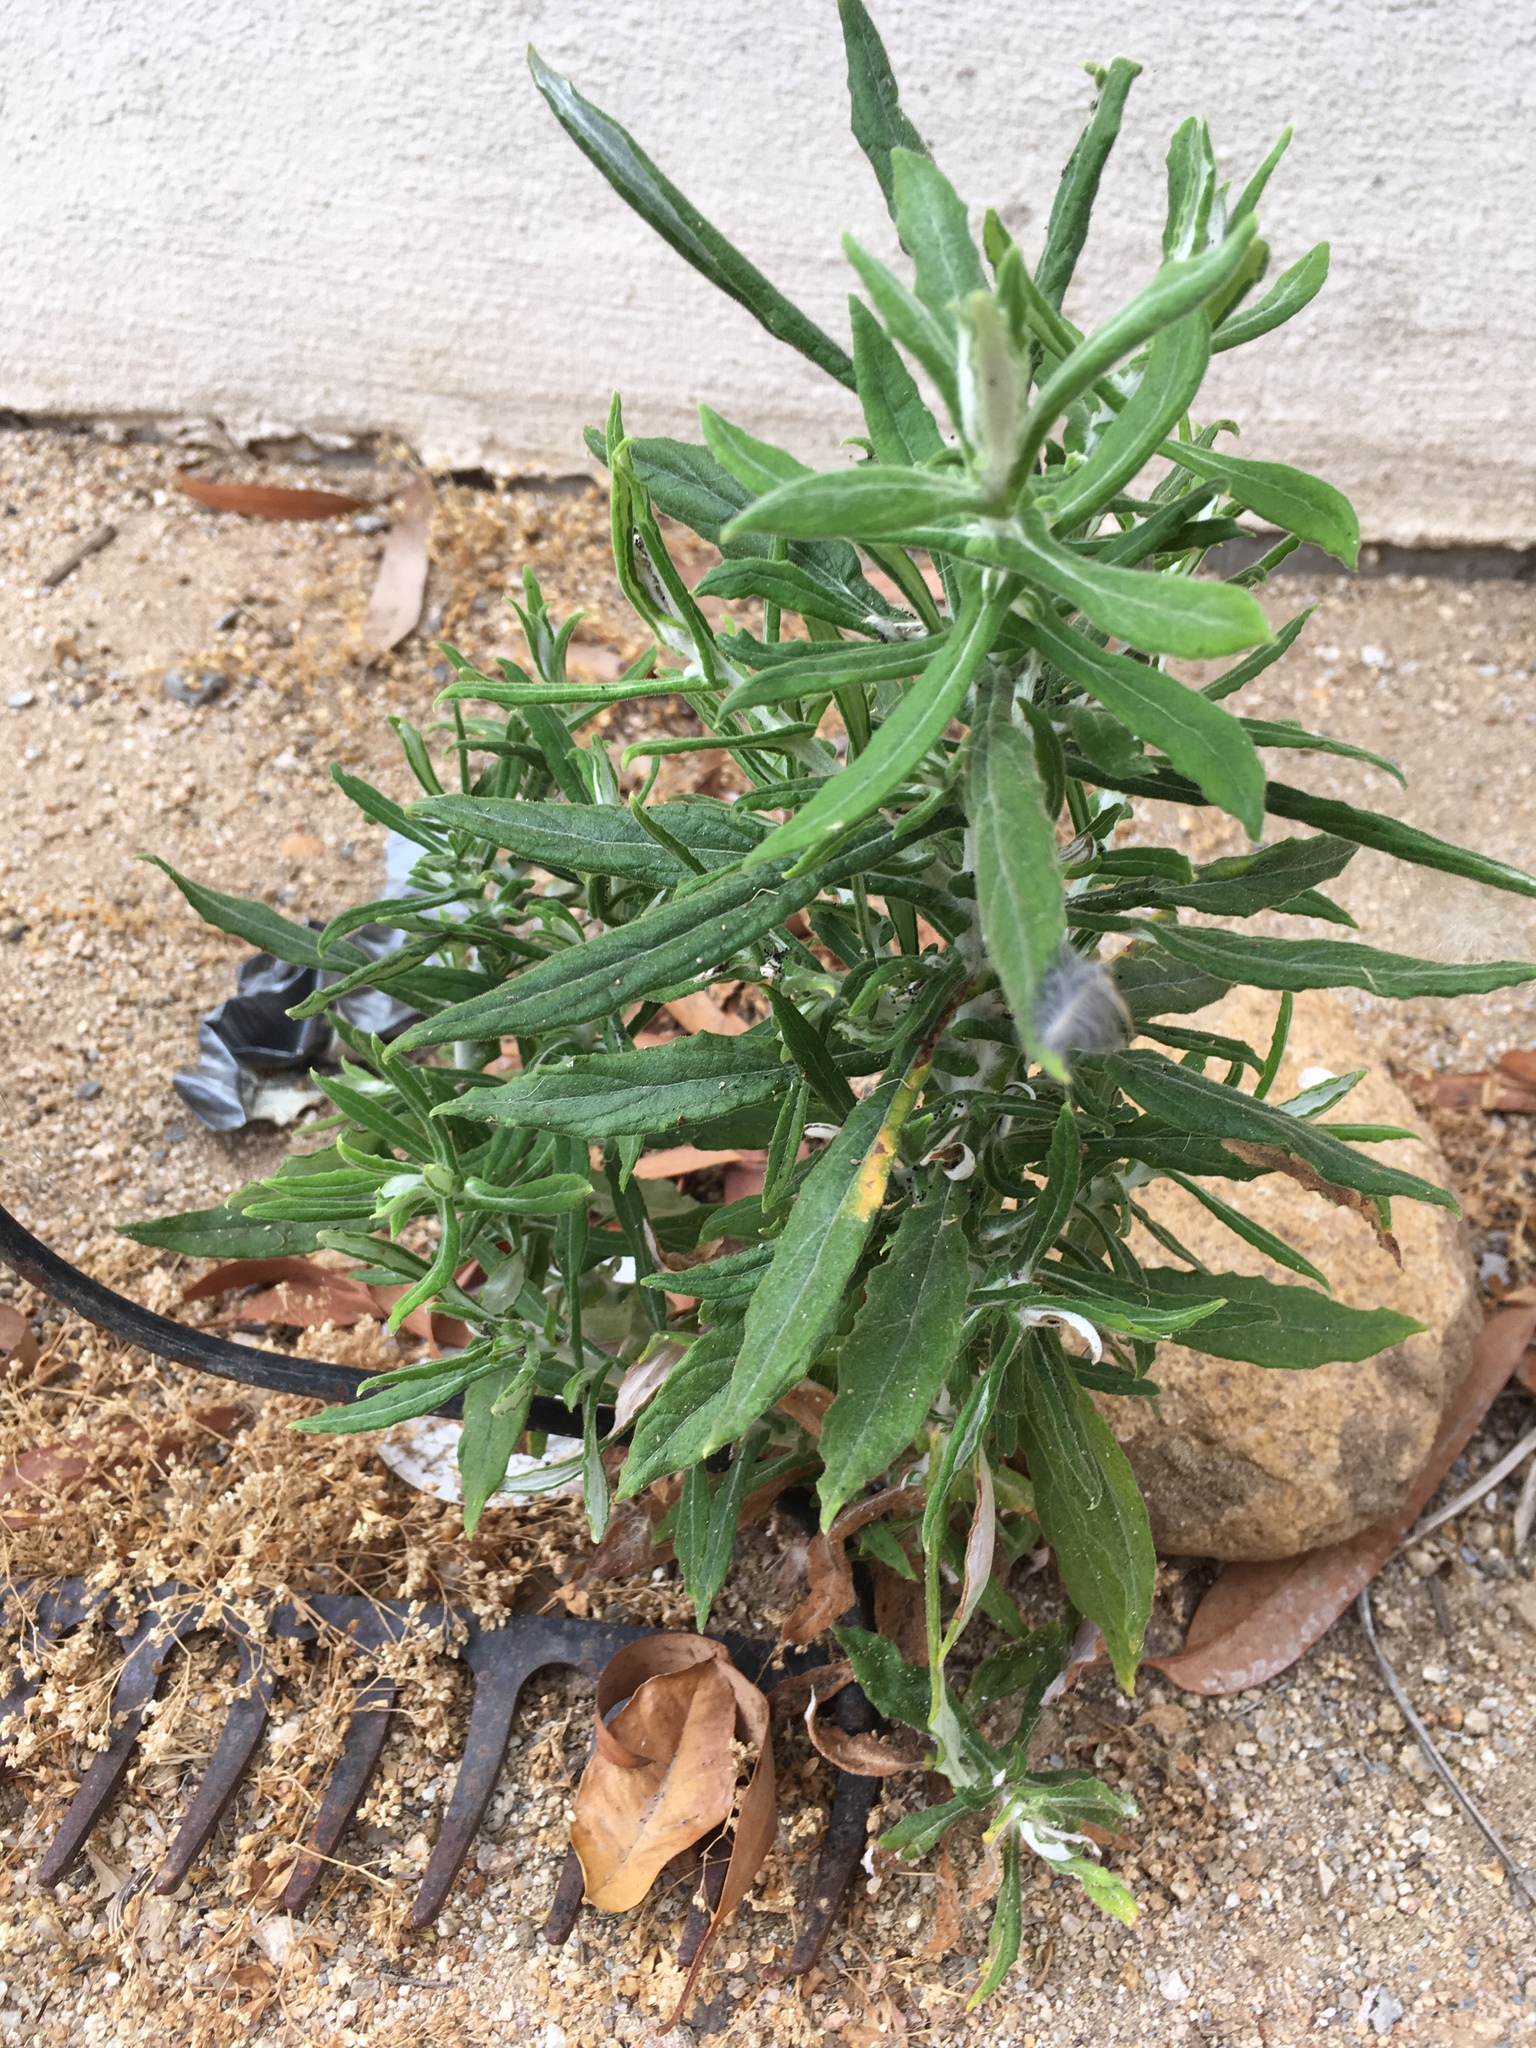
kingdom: Plantae
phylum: Tracheophyta
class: Magnoliopsida
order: Asterales
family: Asteraceae
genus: Pseudognaphalium
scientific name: Pseudognaphalium biolettii
